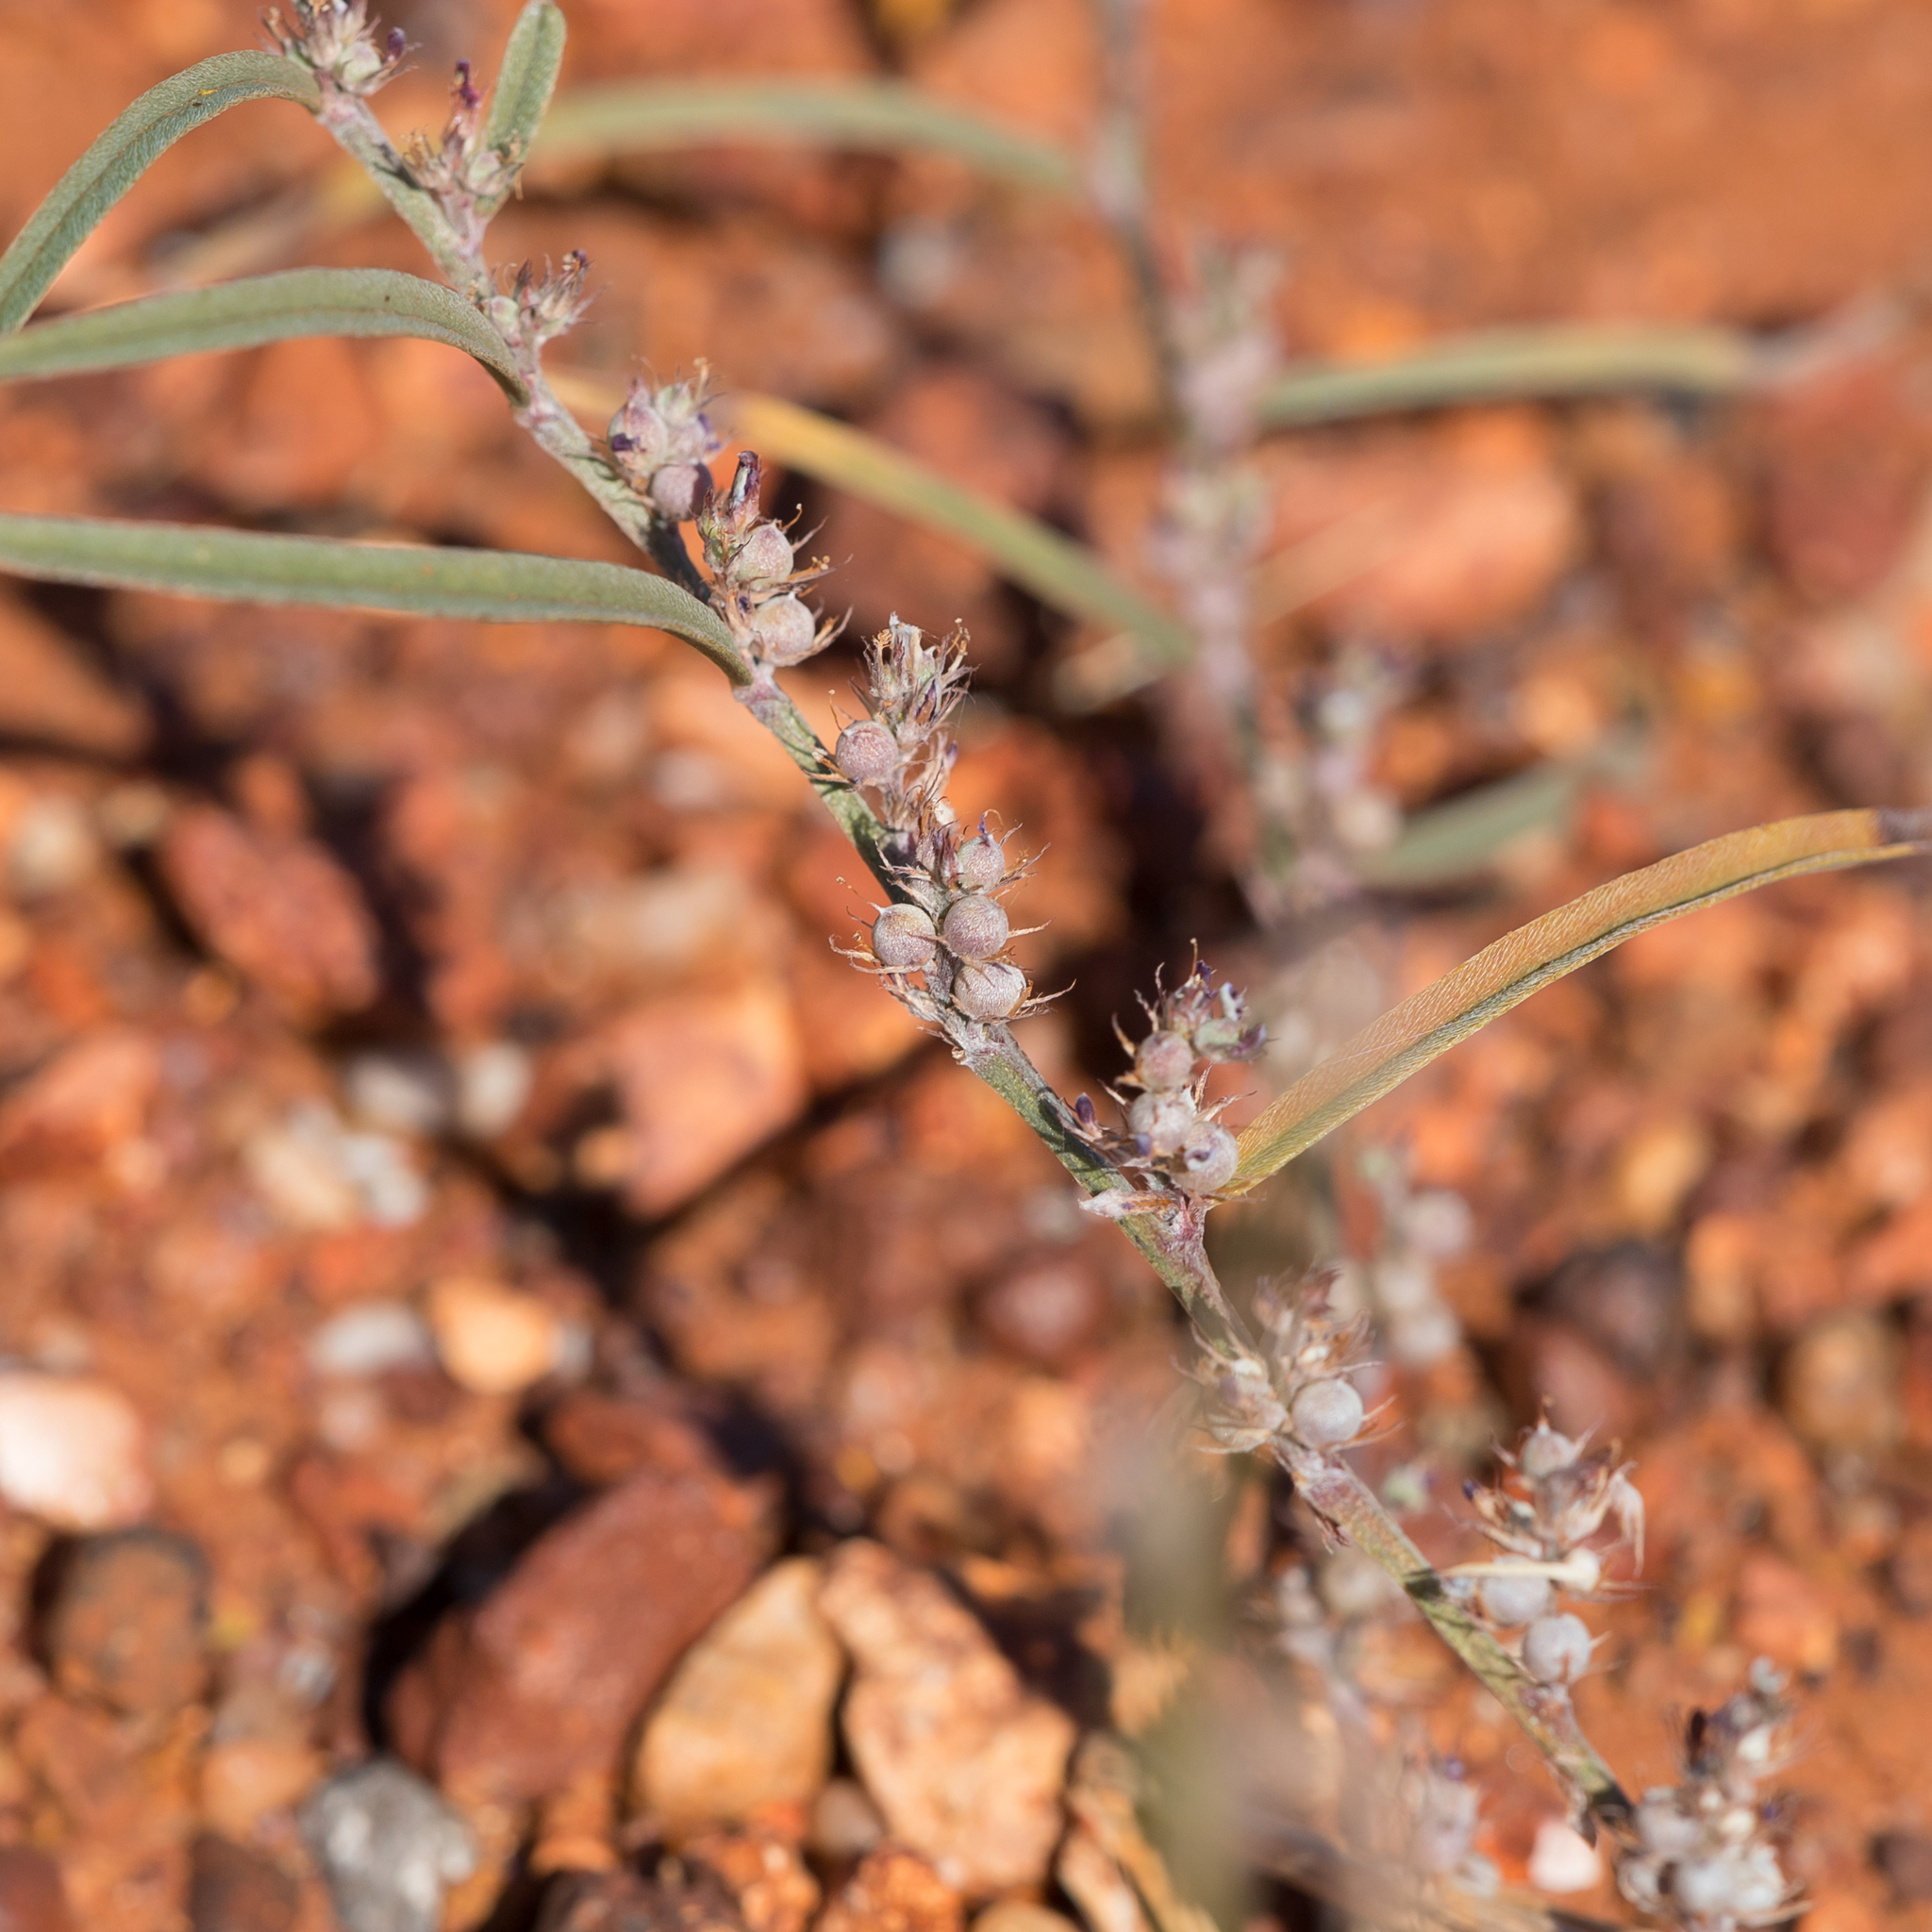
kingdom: Plantae
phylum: Tracheophyta
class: Magnoliopsida
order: Fabales
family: Fabaceae
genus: Indigofera
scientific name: Indigofera linifolia
